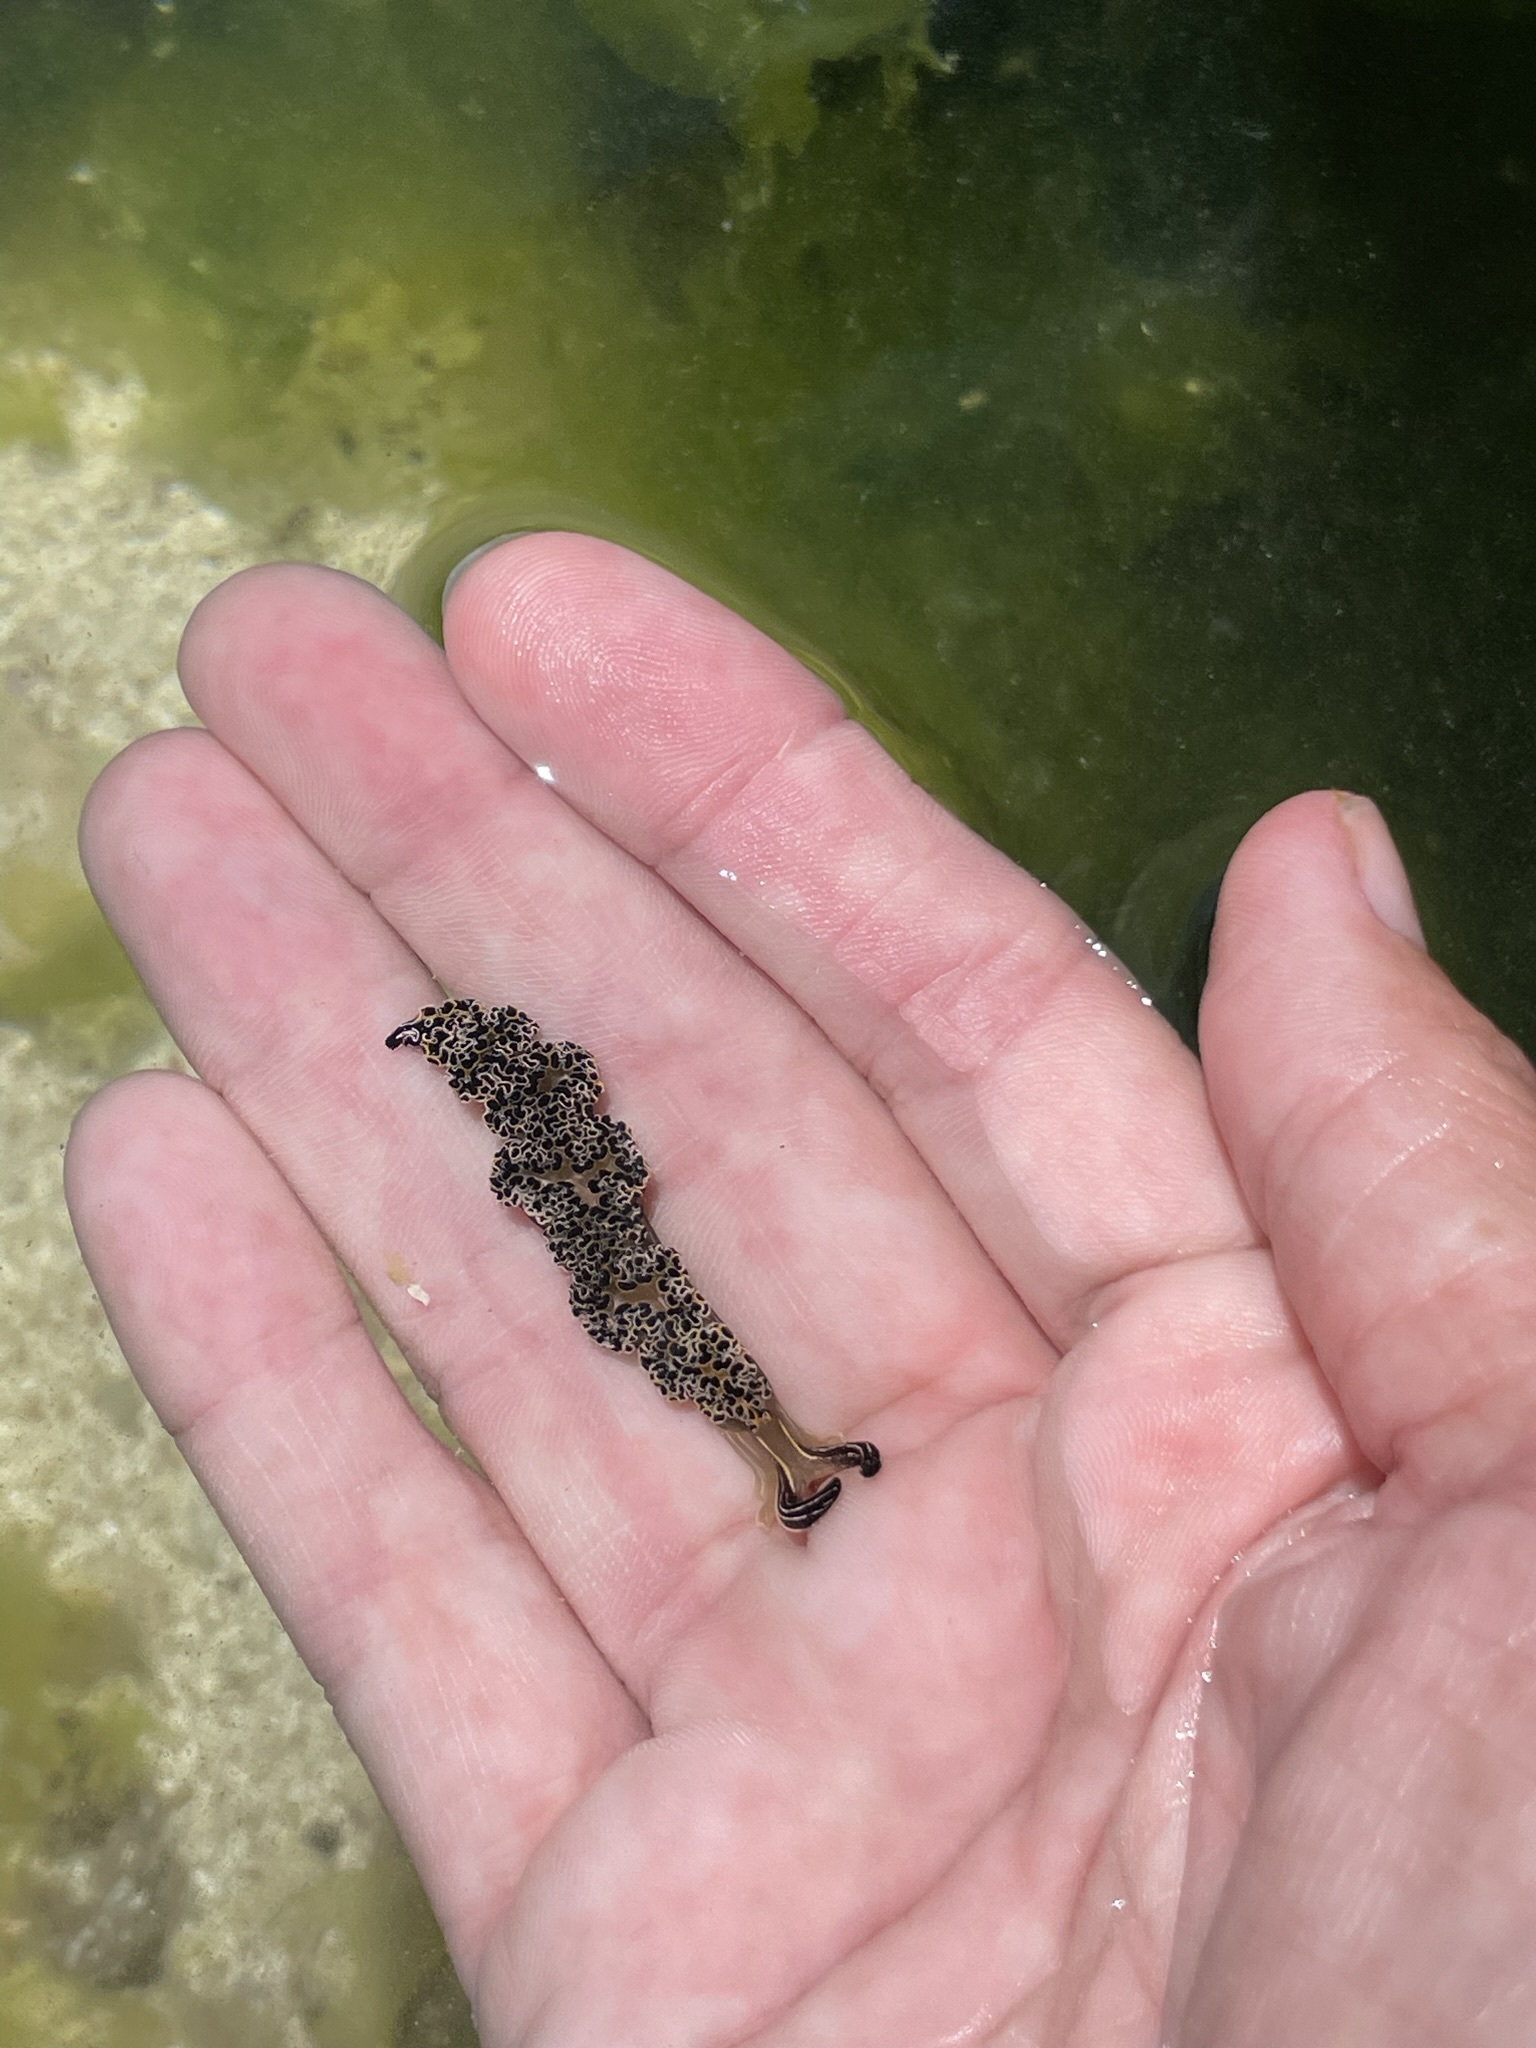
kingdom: Animalia
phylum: Mollusca
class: Gastropoda
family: Plakobranchidae
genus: Elysia
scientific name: Elysia diomedea
